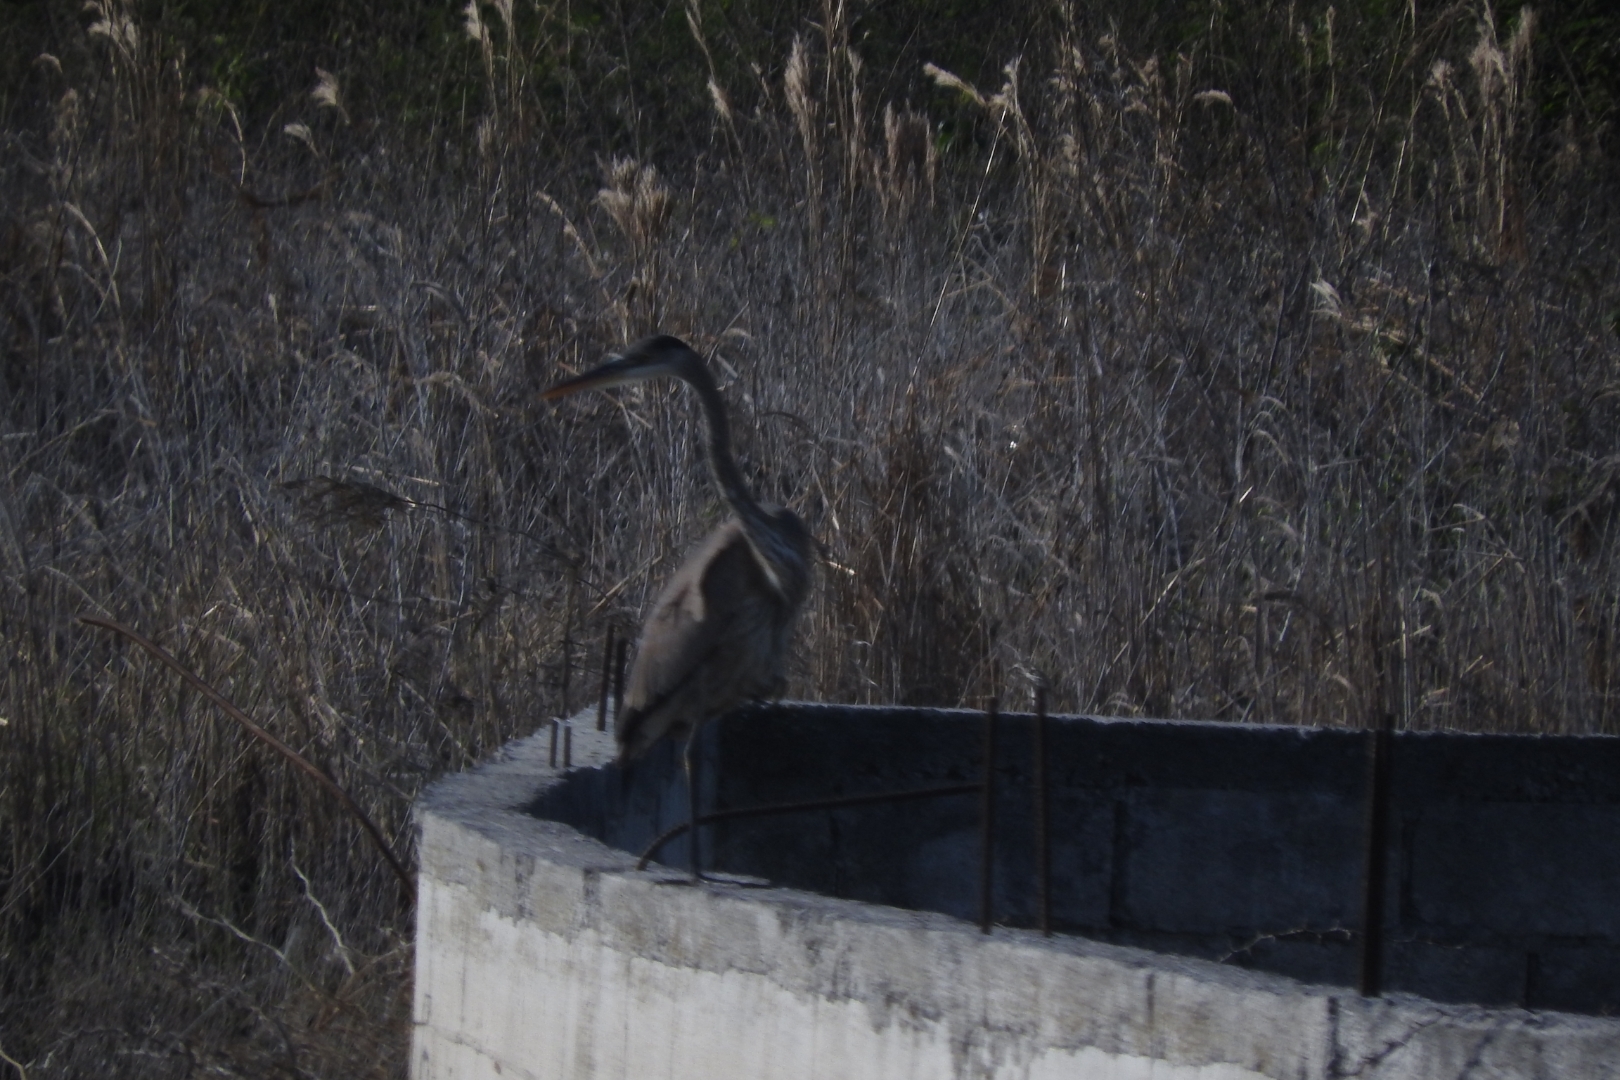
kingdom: Animalia
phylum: Chordata
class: Aves
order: Pelecaniformes
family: Ardeidae
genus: Ardea
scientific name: Ardea herodias
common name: Great blue heron
